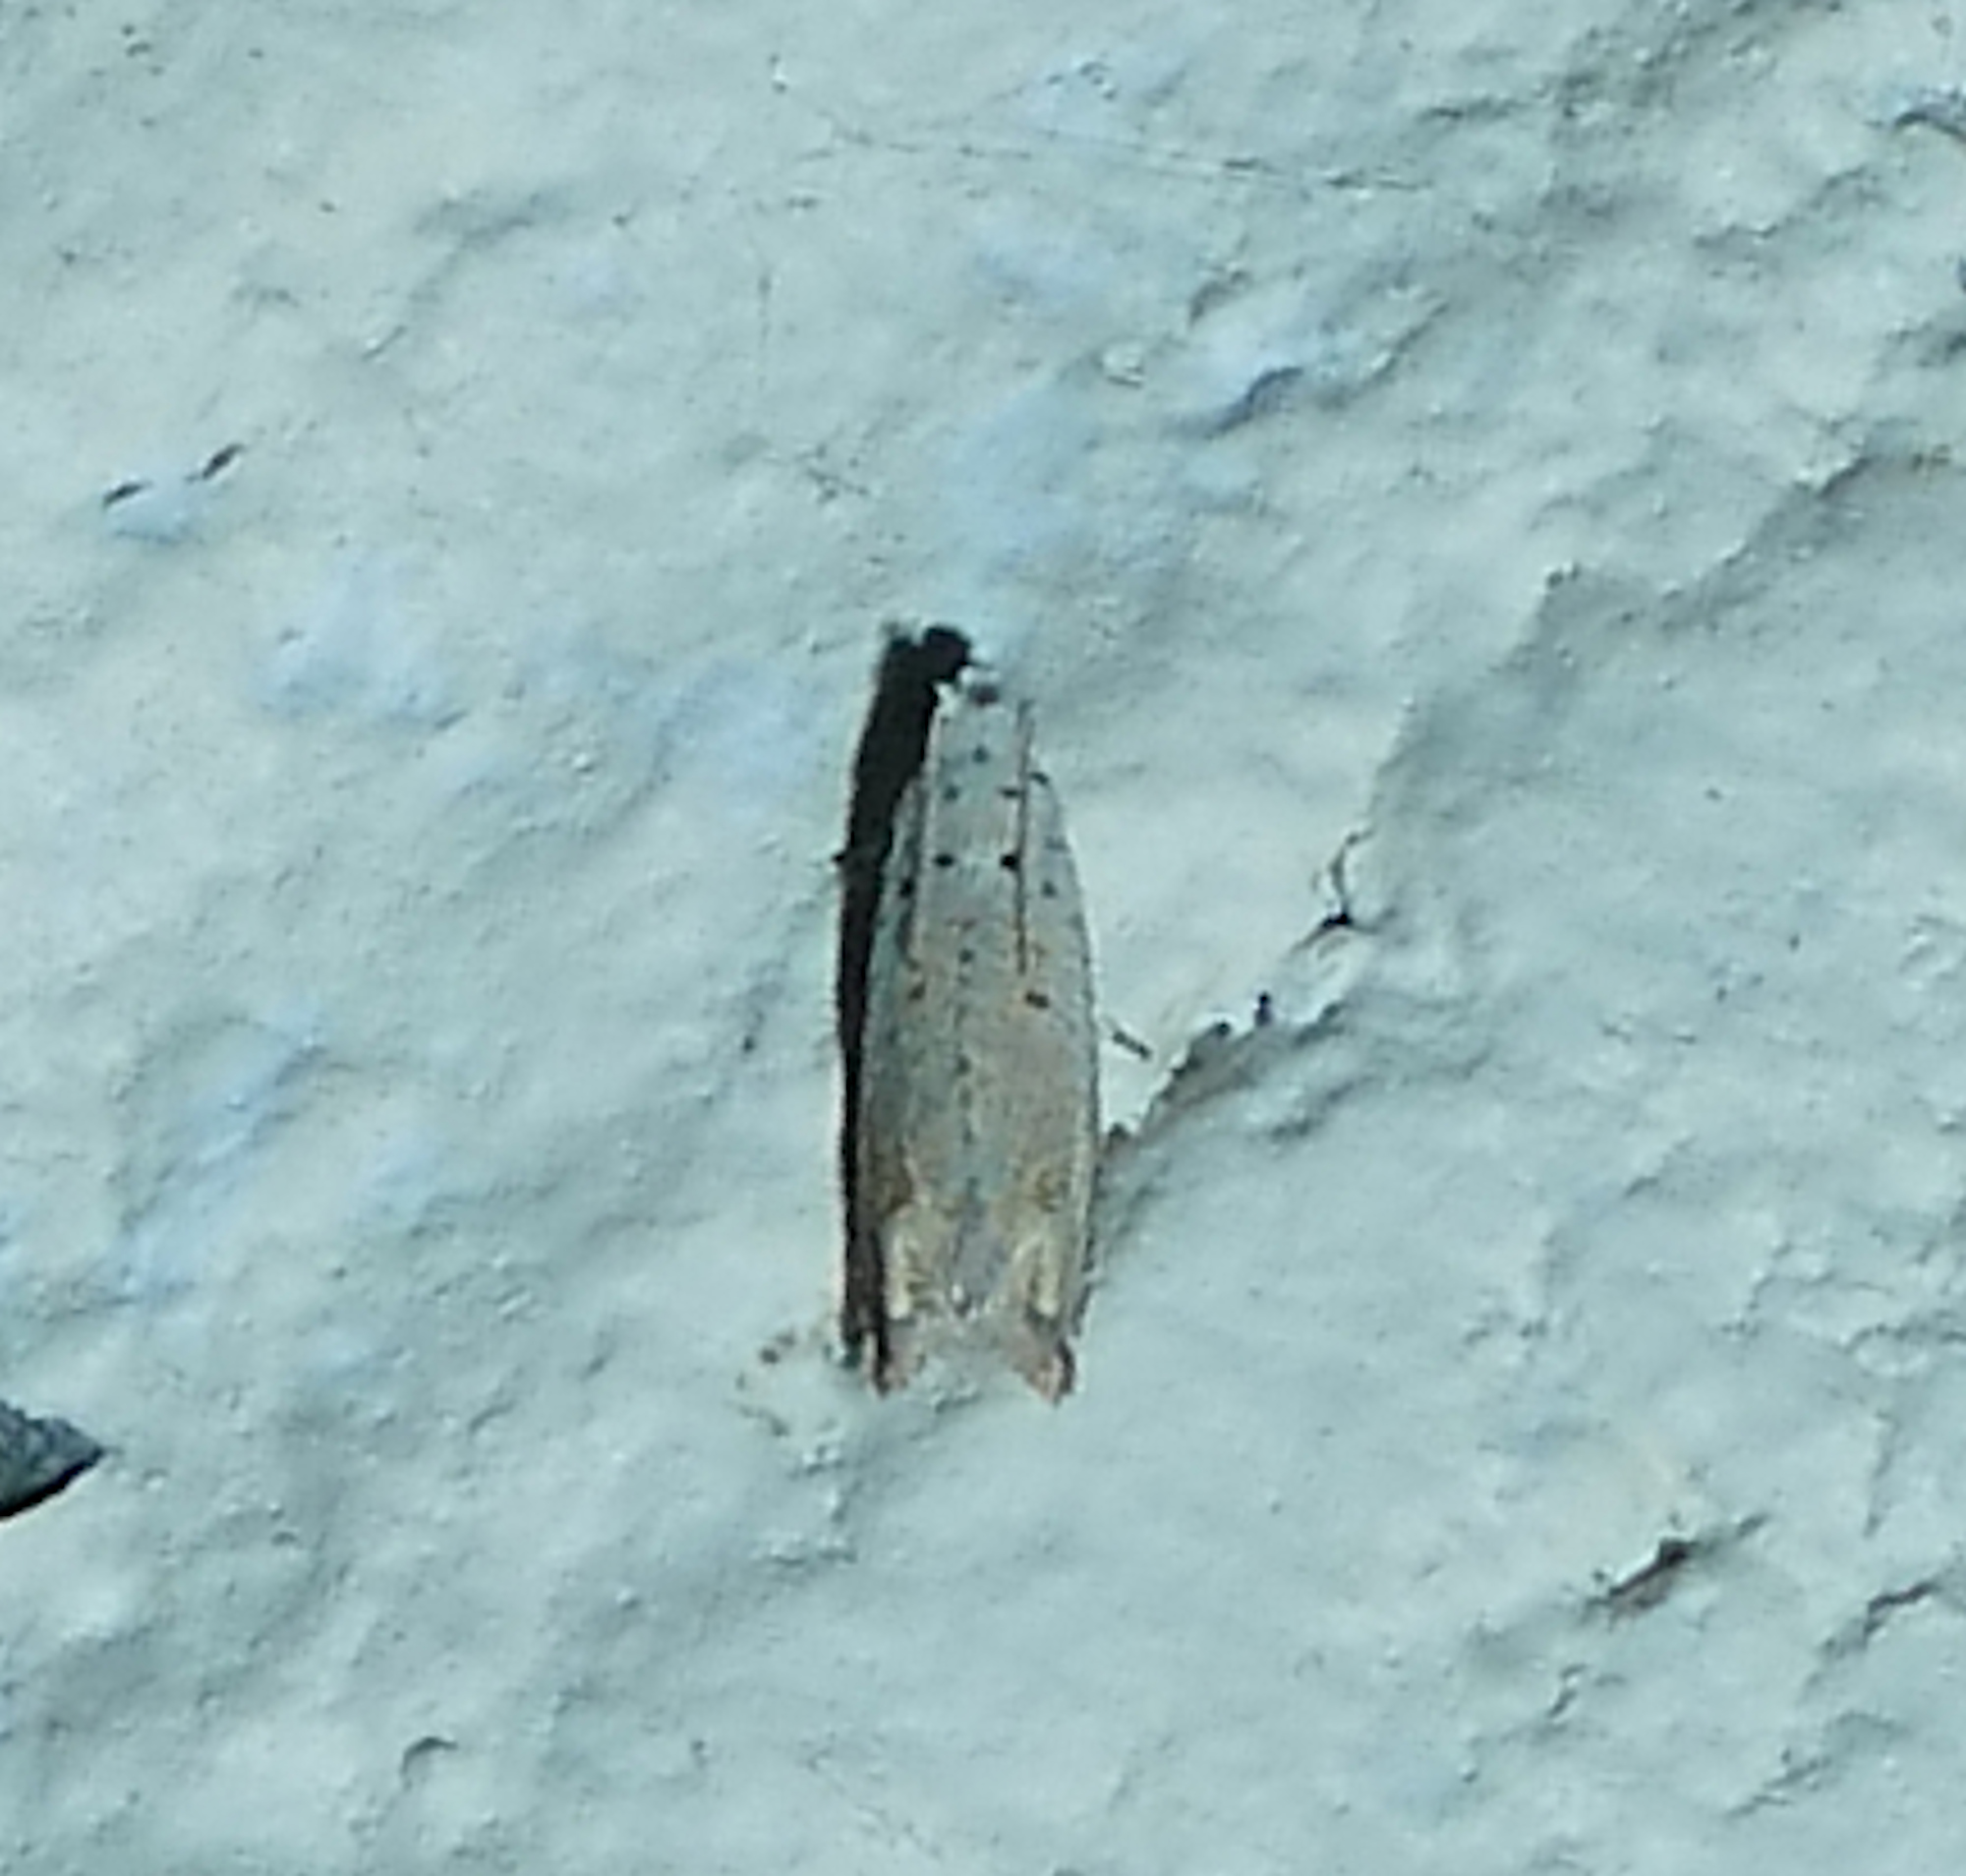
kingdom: Animalia
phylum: Arthropoda
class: Insecta
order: Lepidoptera
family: Tortricidae
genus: Epiblema
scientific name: Epiblema separationis
